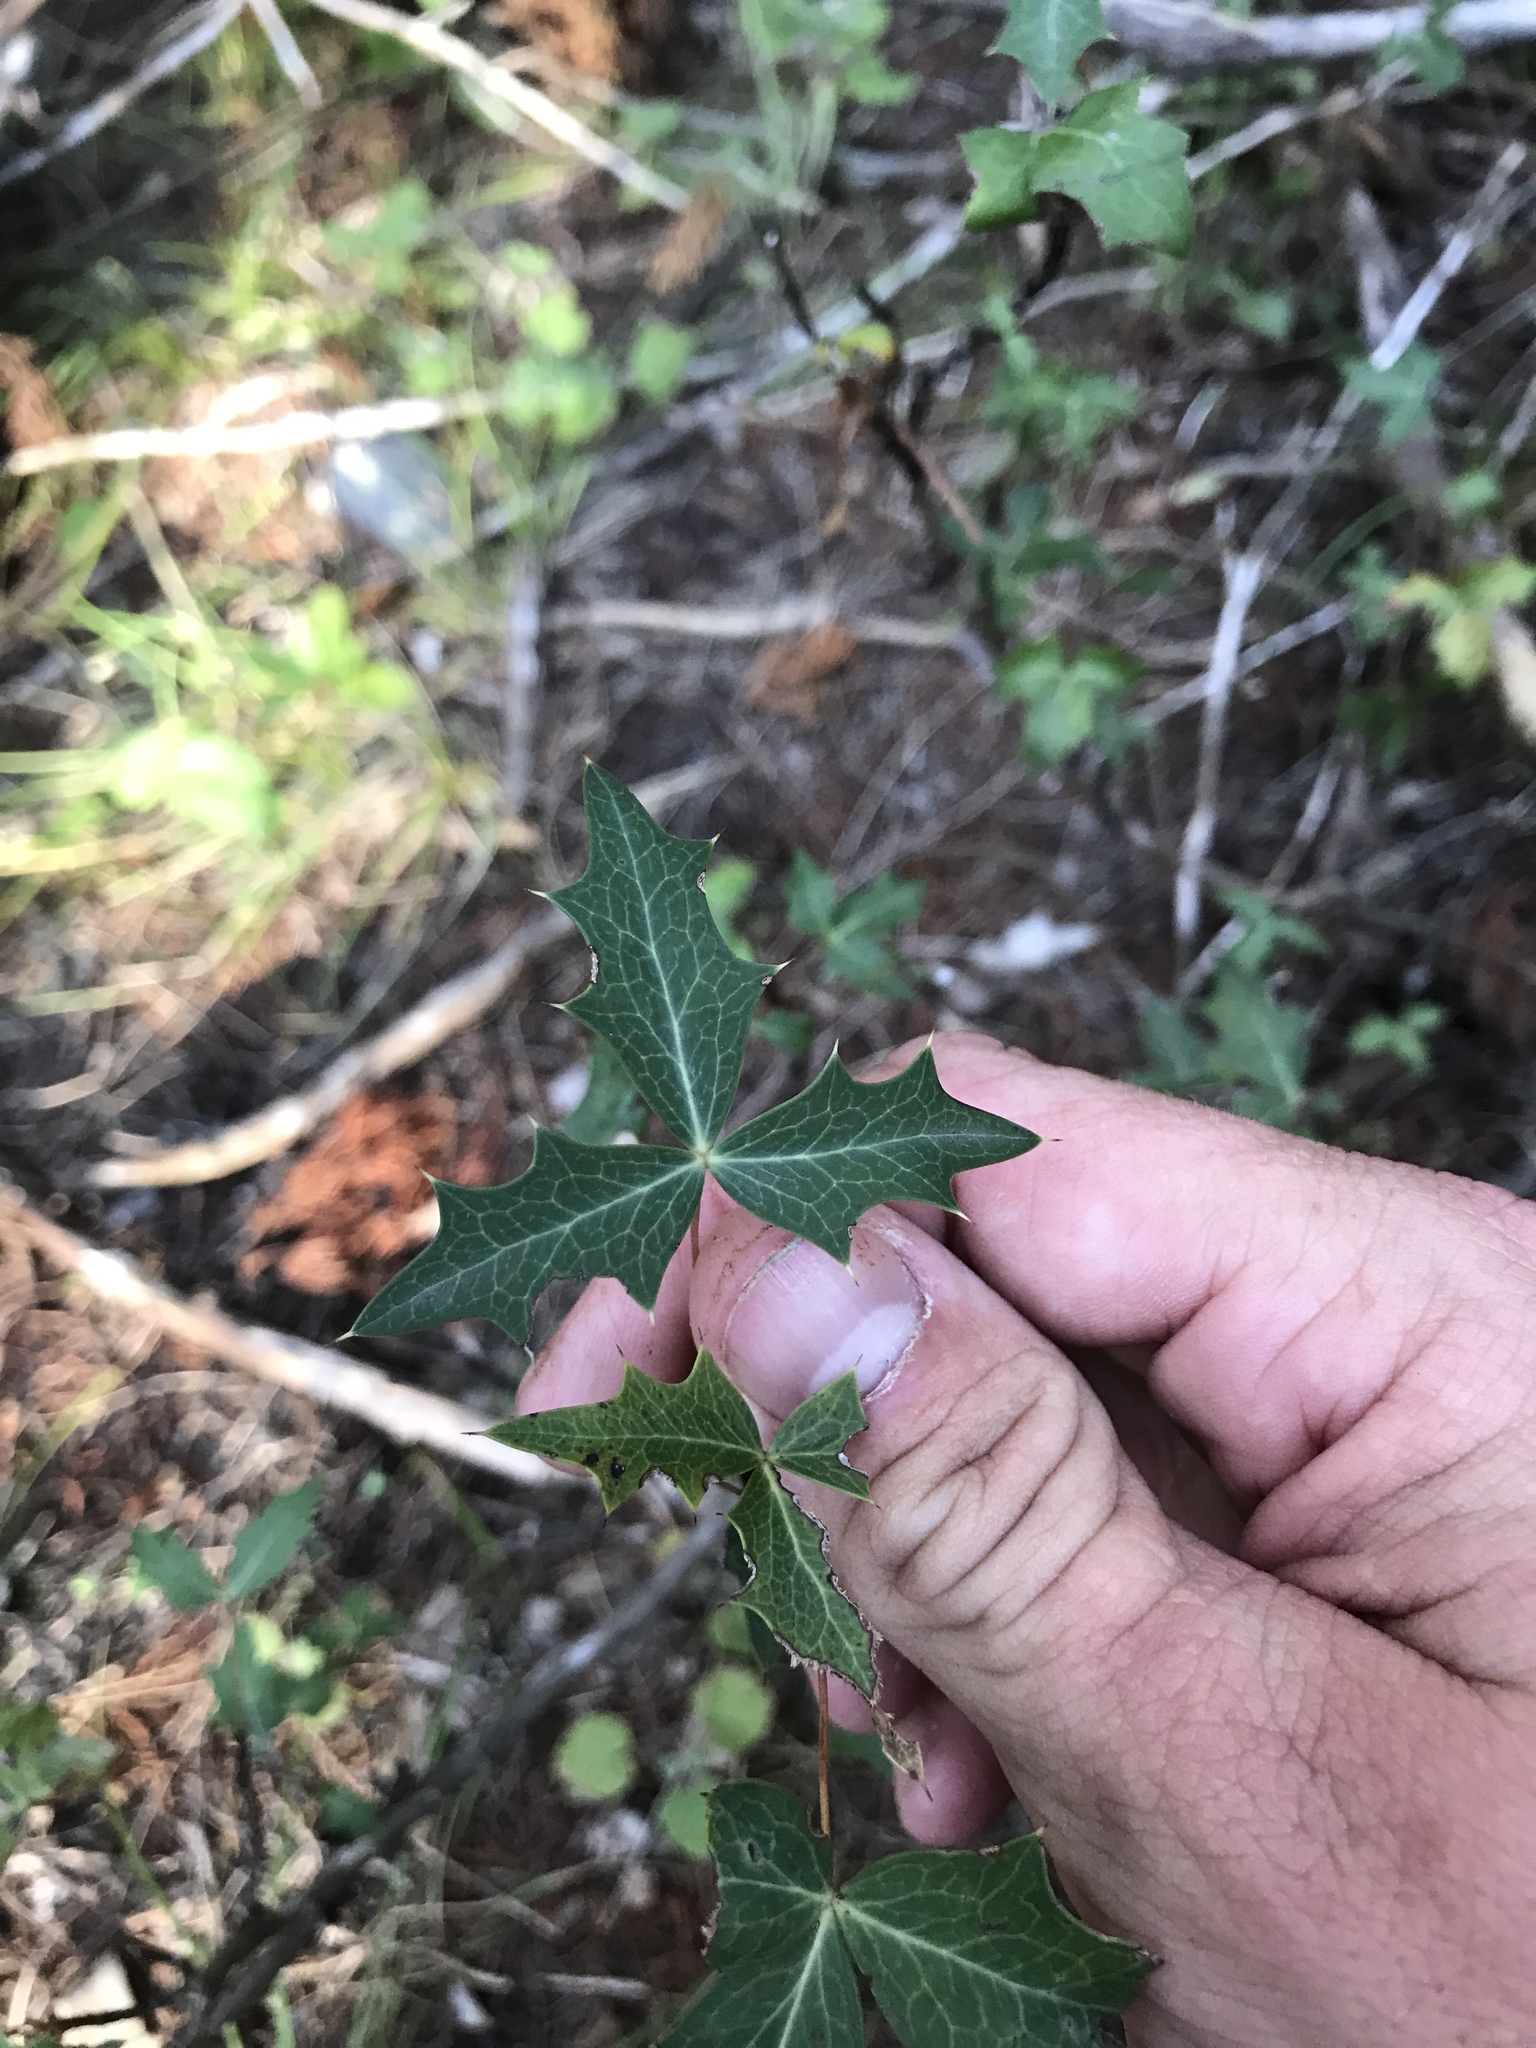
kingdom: Plantae
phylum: Tracheophyta
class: Magnoliopsida
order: Ranunculales
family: Berberidaceae
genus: Alloberberis
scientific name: Alloberberis trifoliolata
